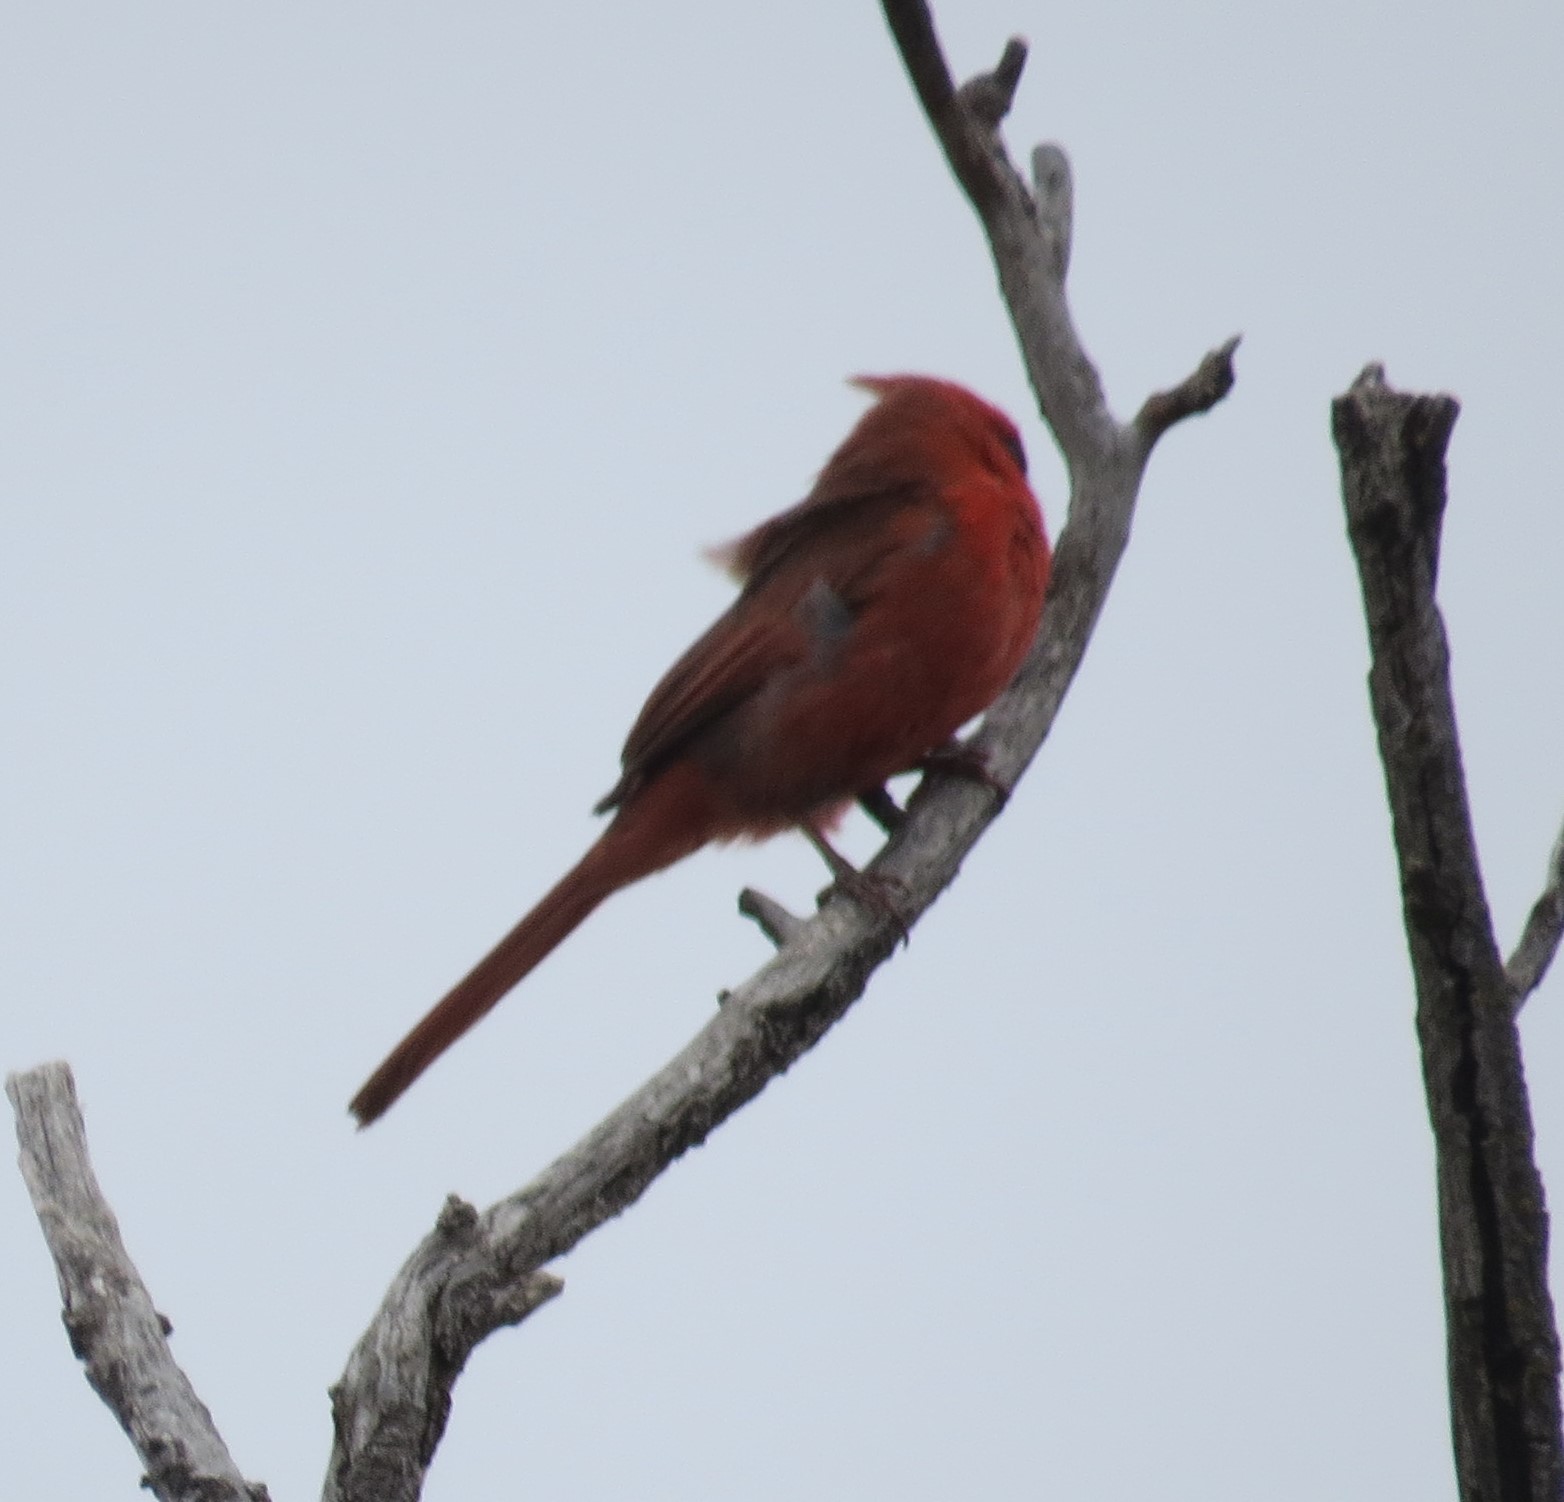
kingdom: Animalia
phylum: Chordata
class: Aves
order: Passeriformes
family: Cardinalidae
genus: Cardinalis
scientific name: Cardinalis cardinalis
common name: Northern cardinal
